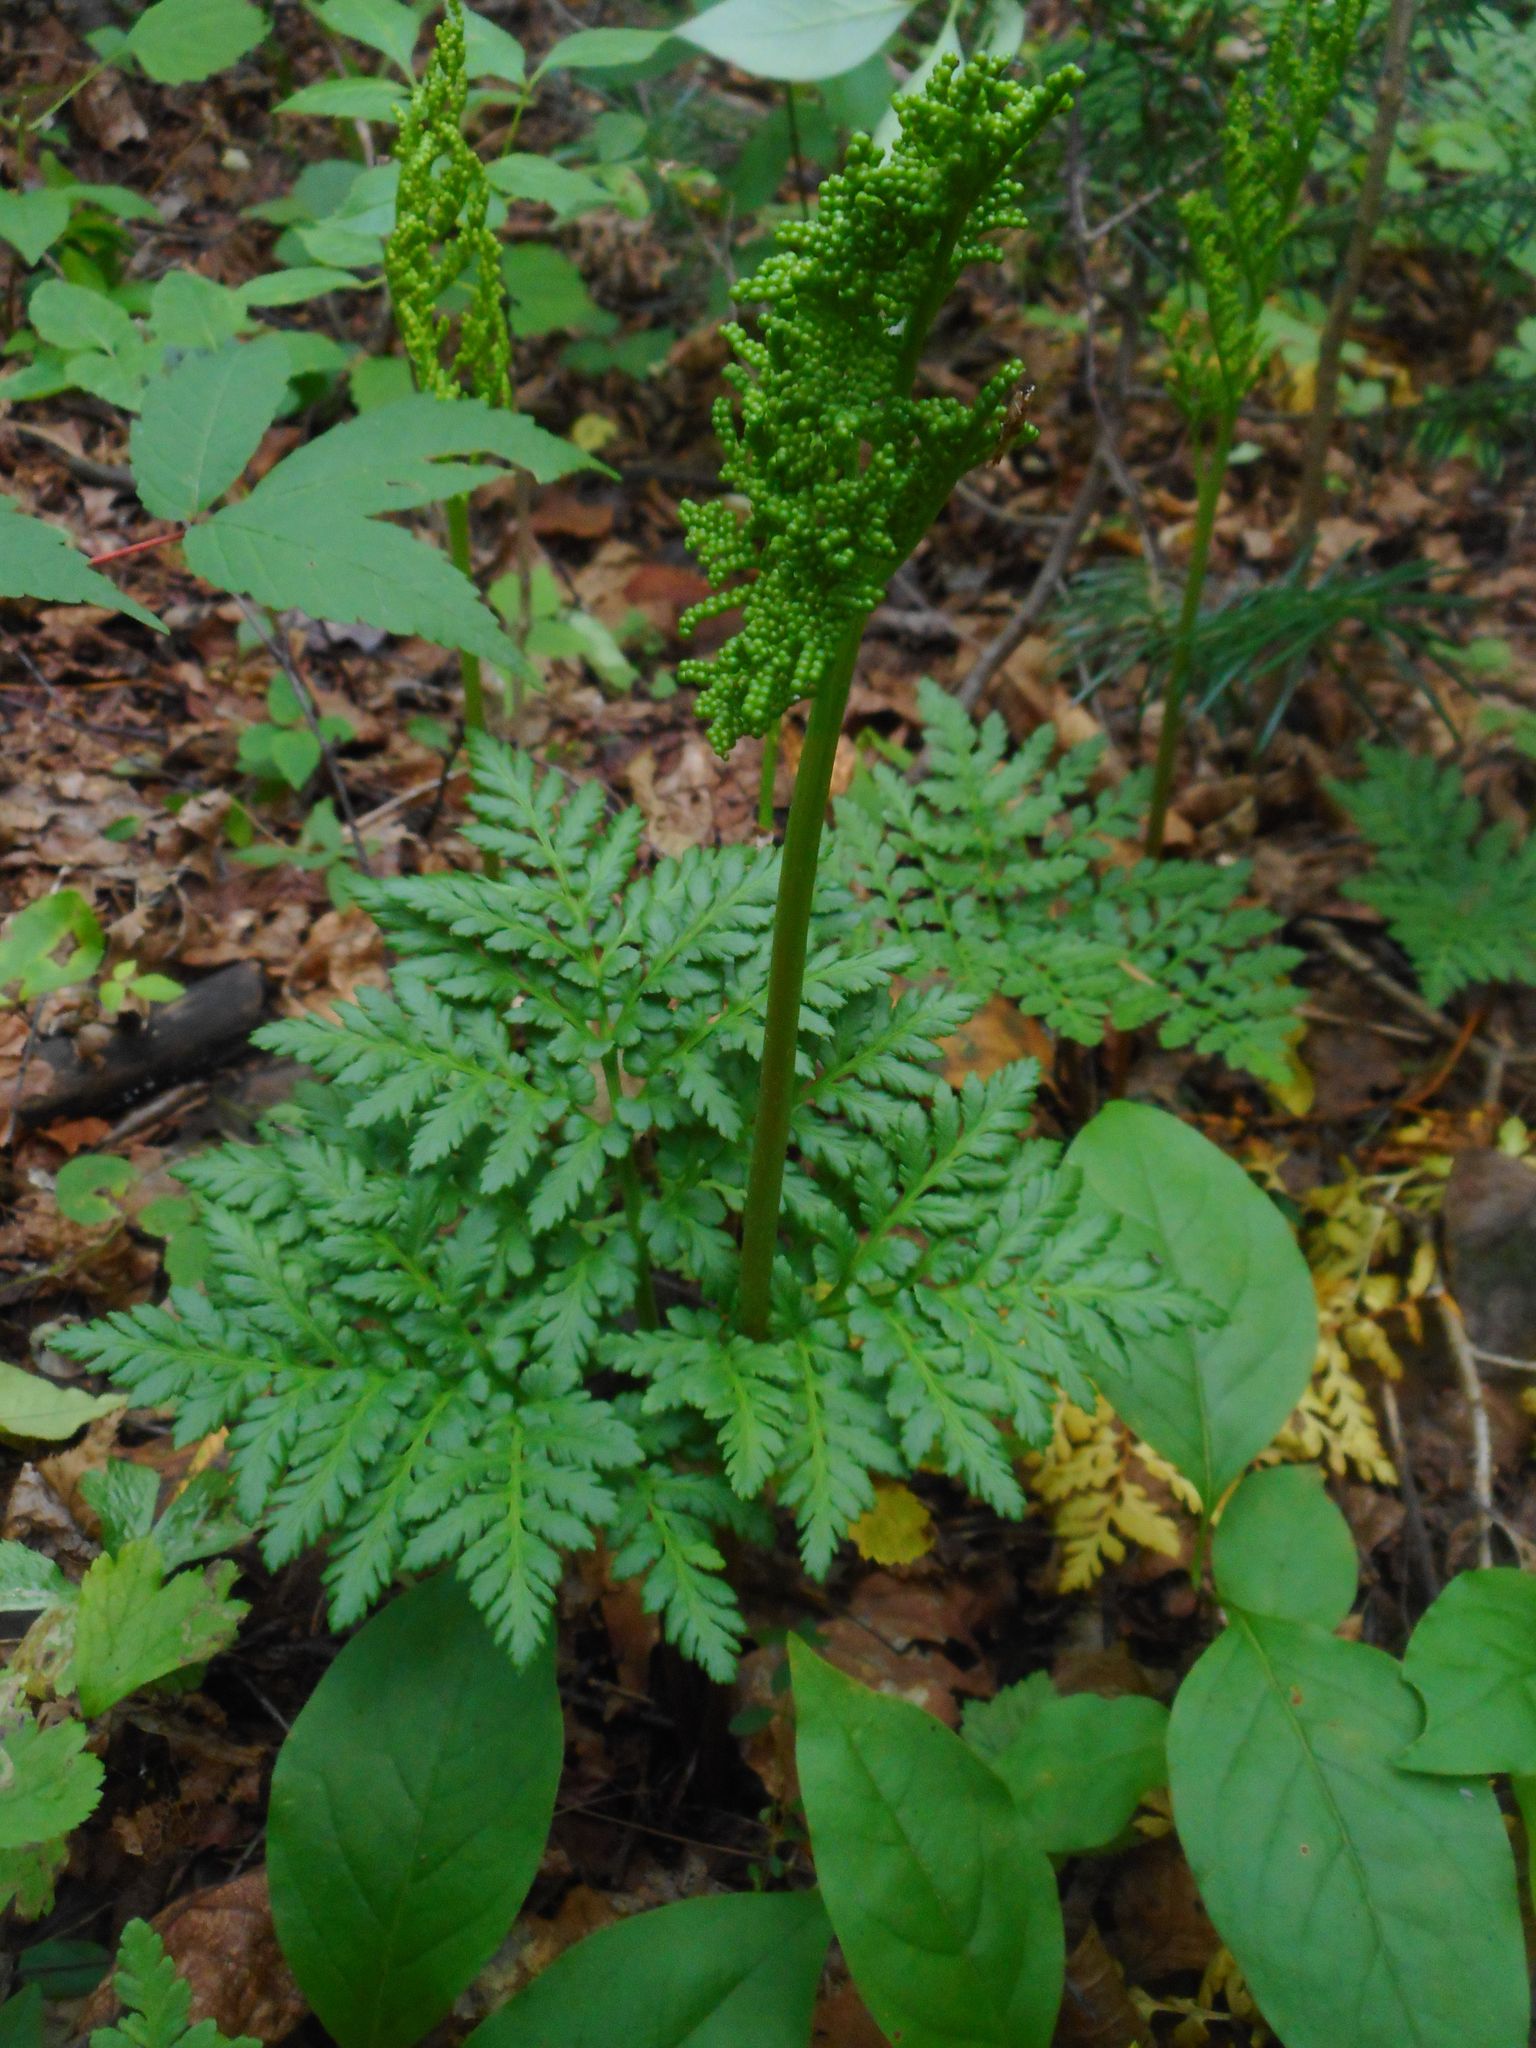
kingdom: Plantae
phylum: Tracheophyta
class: Polypodiopsida
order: Ophioglossales
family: Ophioglossaceae
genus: Sceptridium
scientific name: Sceptridium robustum
